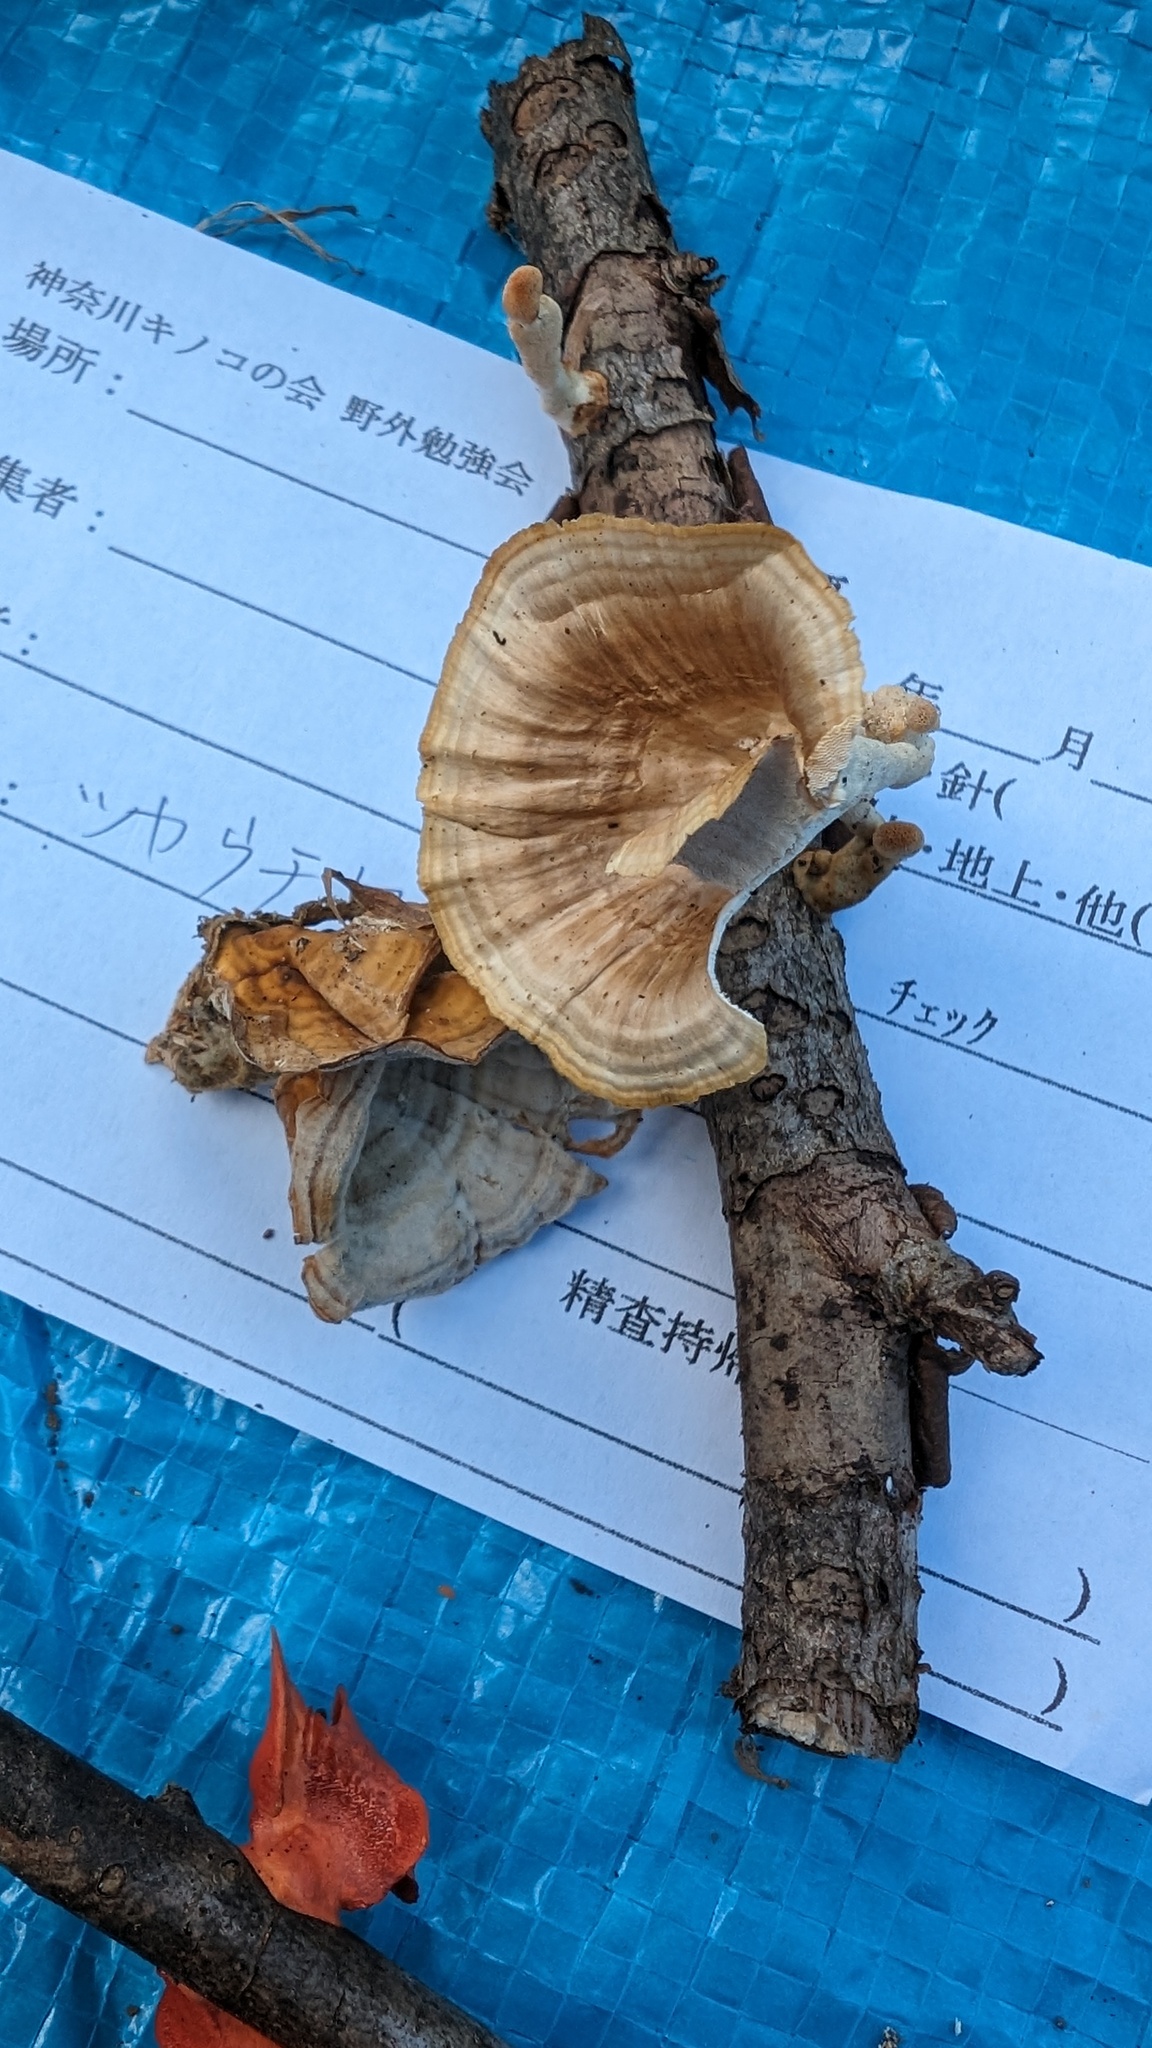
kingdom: Fungi
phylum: Basidiomycota
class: Agaricomycetes
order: Polyporales
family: Polyporaceae
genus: Trametes
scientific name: Trametes vernicipes
